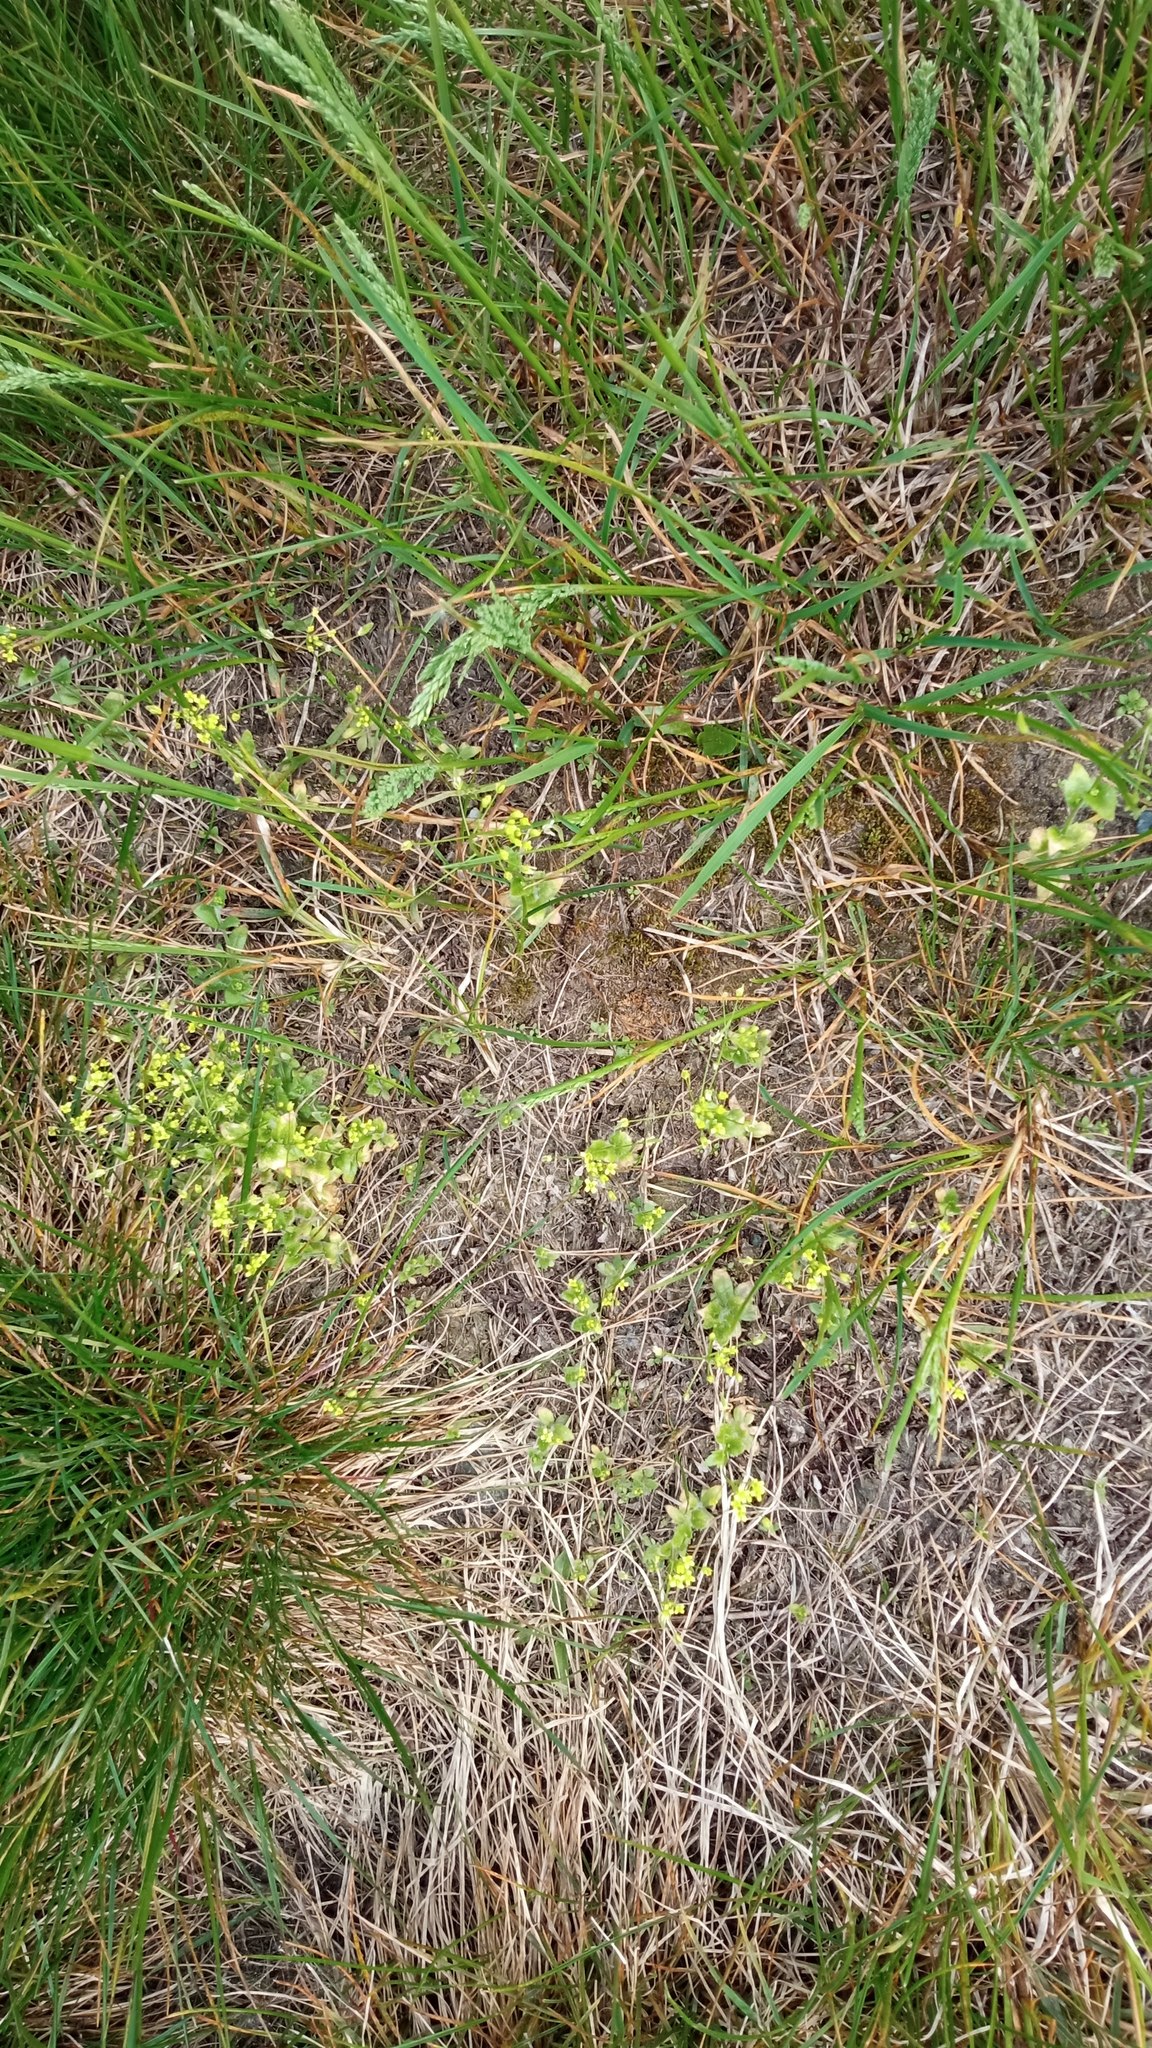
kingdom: Plantae
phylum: Tracheophyta
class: Magnoliopsida
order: Brassicales
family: Brassicaceae
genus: Draba
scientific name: Draba nemorosa
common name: Wood whitlow-grass
